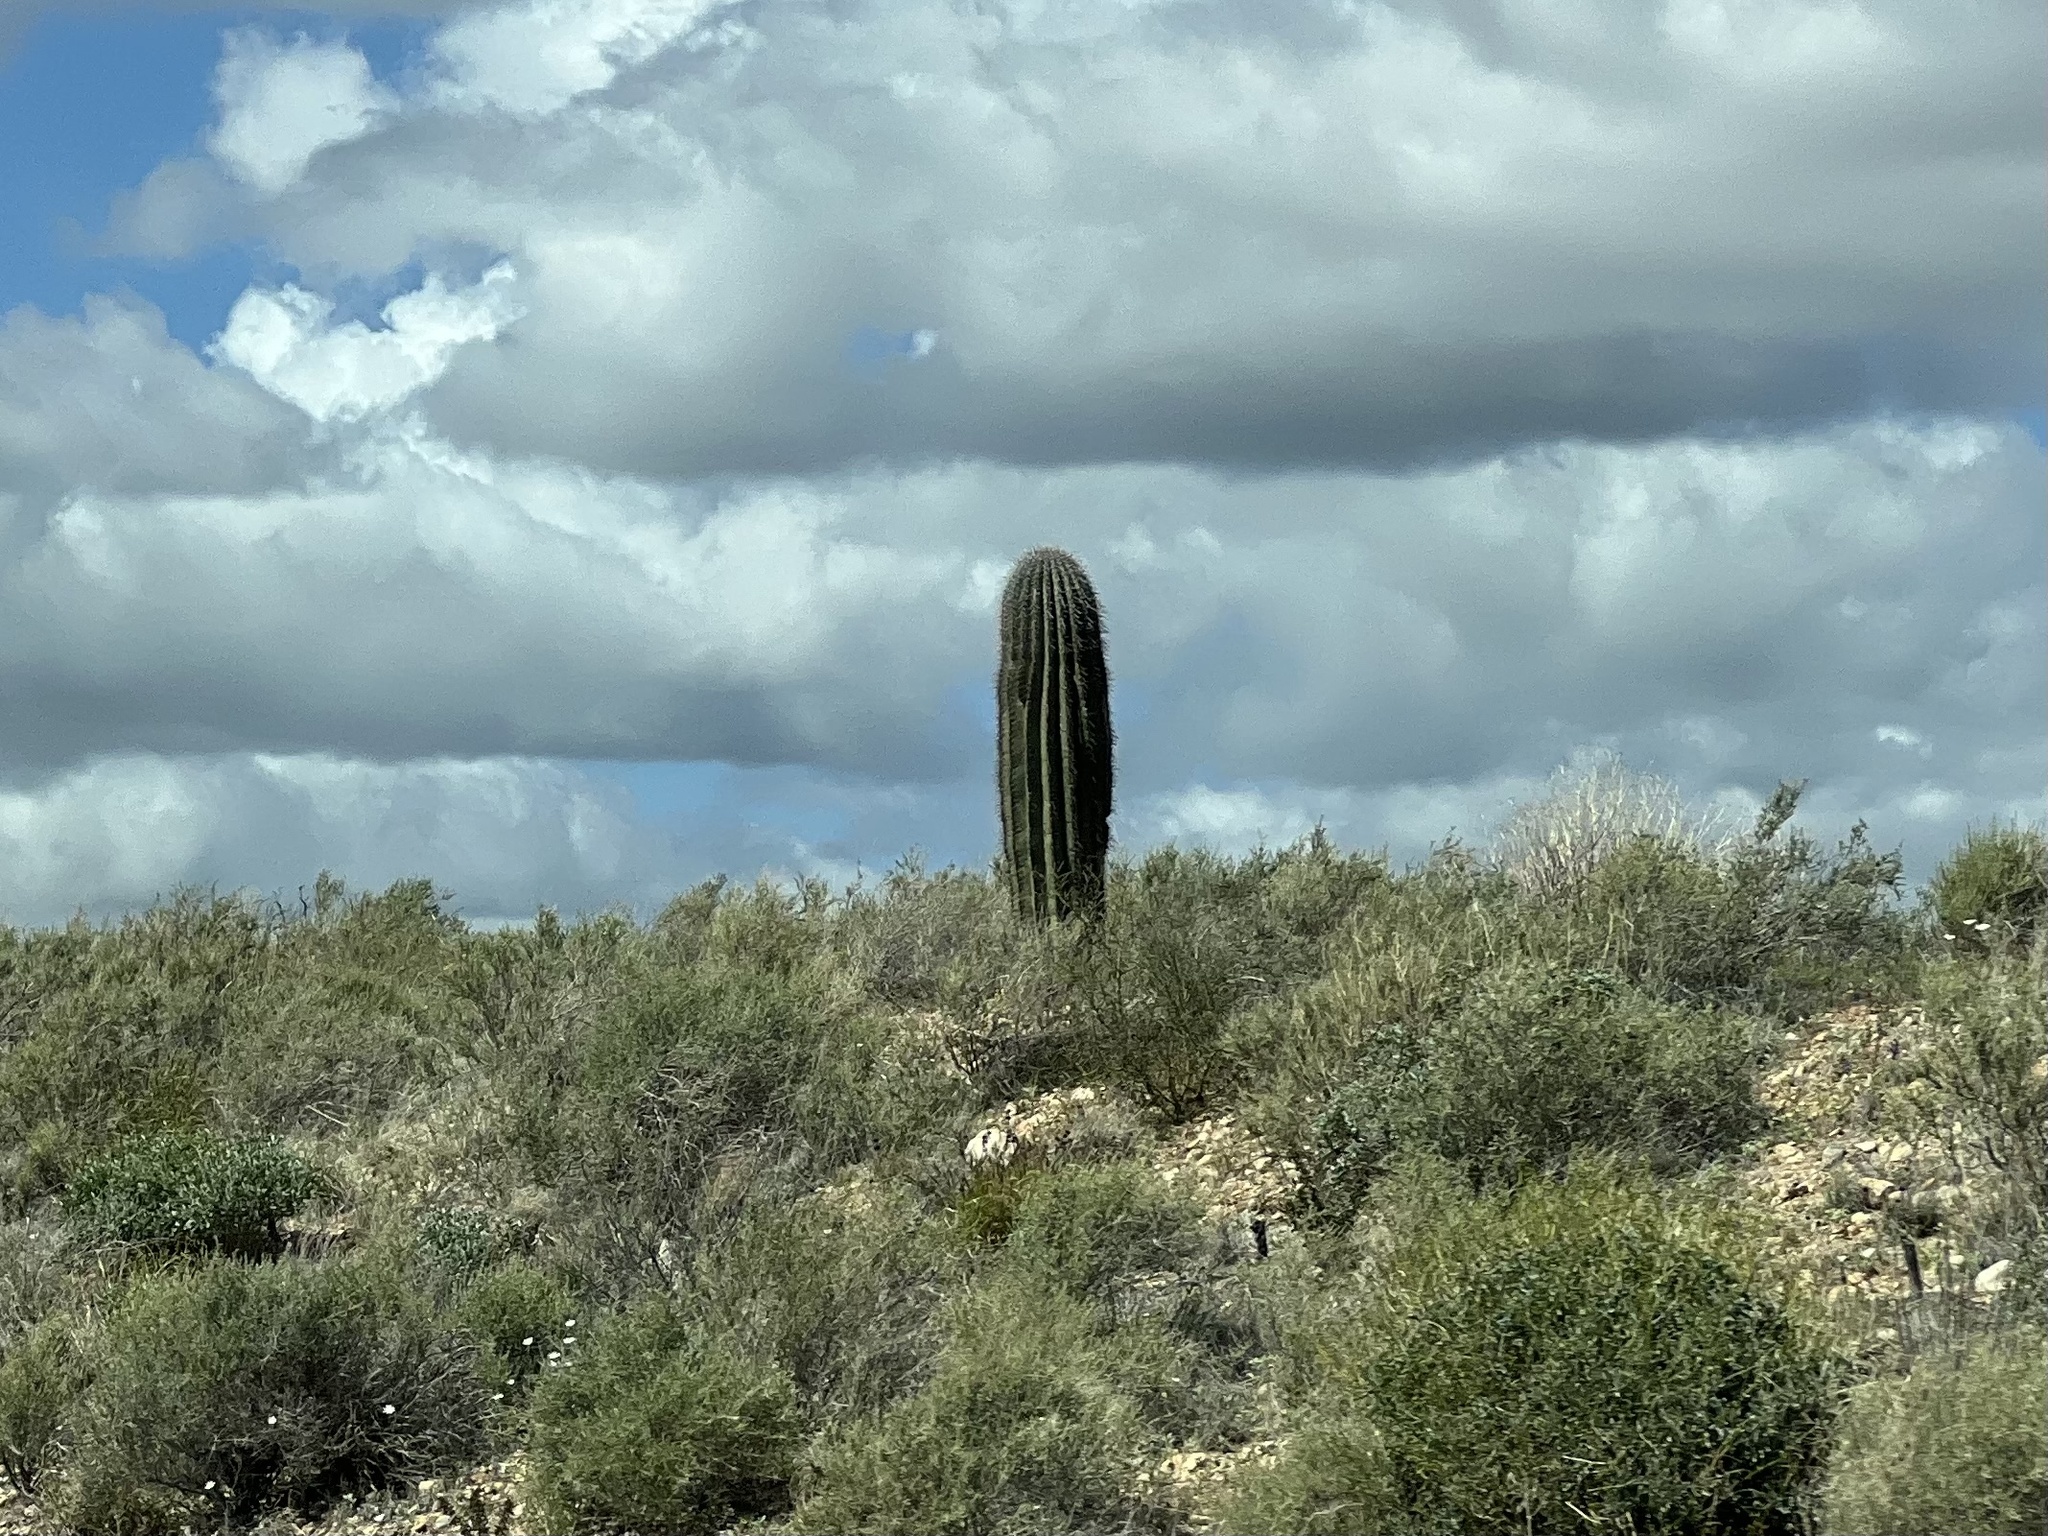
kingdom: Plantae
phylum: Tracheophyta
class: Magnoliopsida
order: Caryophyllales
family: Cactaceae
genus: Carnegiea
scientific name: Carnegiea gigantea
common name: Saguaro
